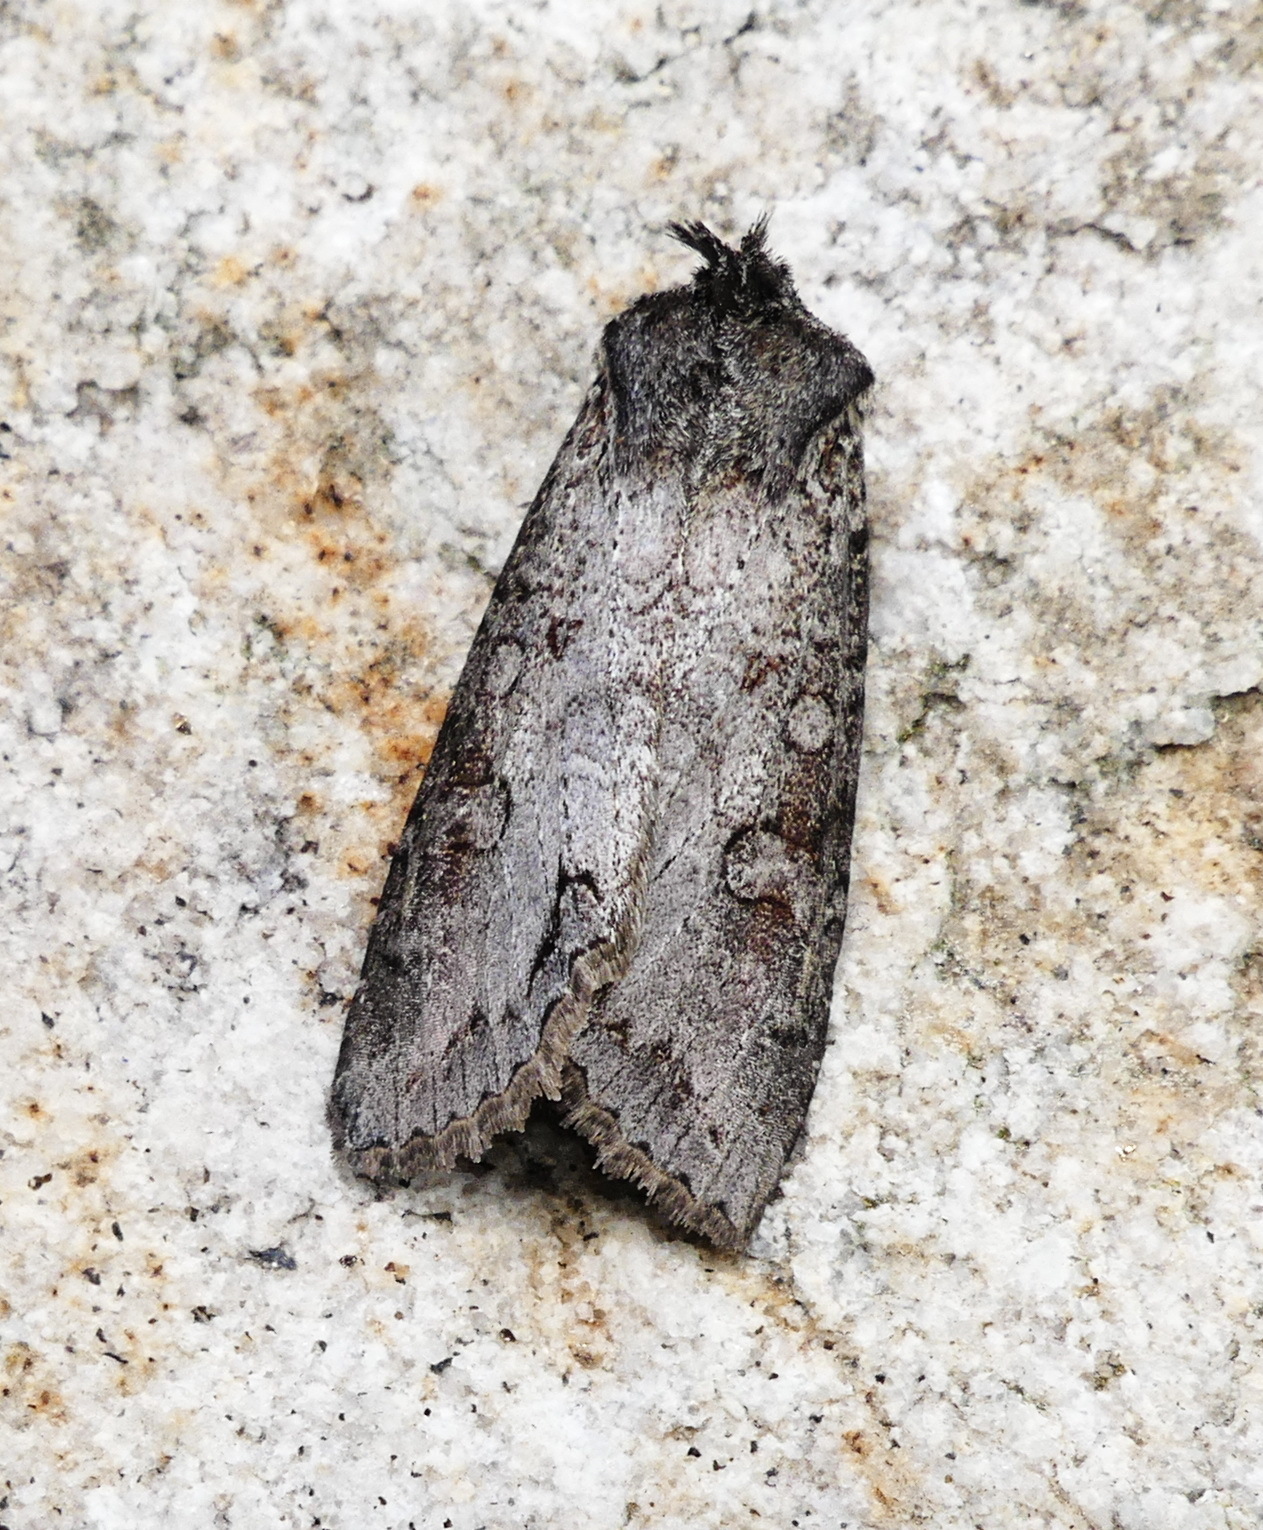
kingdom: Animalia
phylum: Arthropoda
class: Insecta
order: Lepidoptera
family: Noctuidae
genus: Polia
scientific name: Polia purpurissata
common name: Purple arches moth
